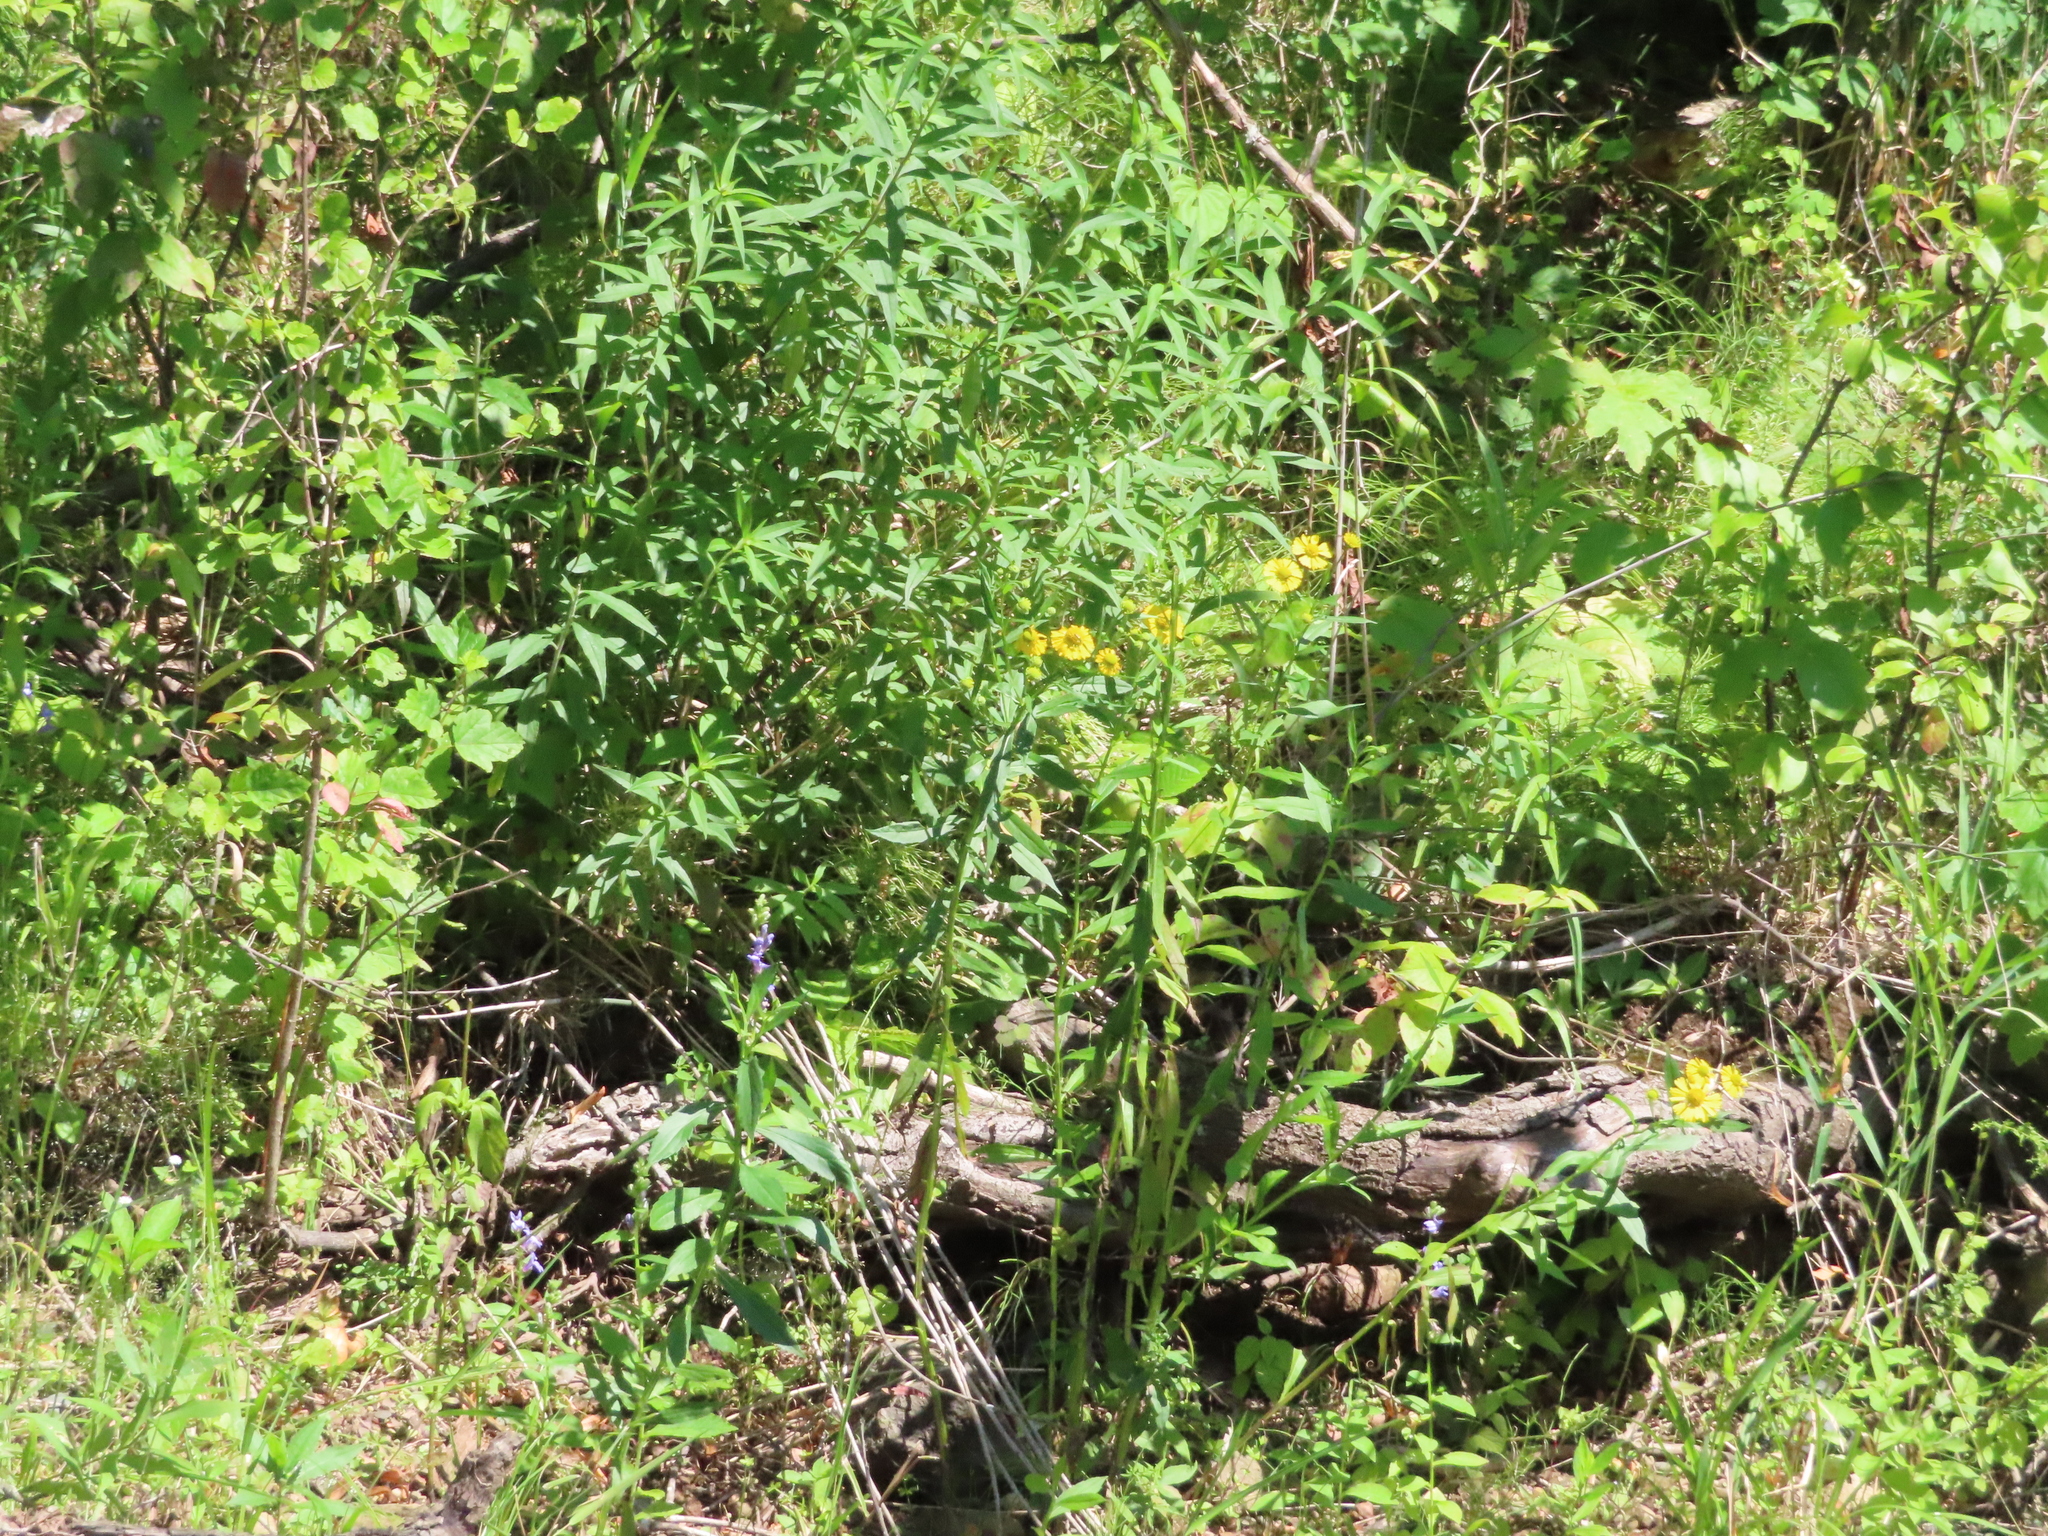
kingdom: Plantae
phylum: Tracheophyta
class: Magnoliopsida
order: Asterales
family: Asteraceae
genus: Helenium
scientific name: Helenium autumnale
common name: Sneezeweed
